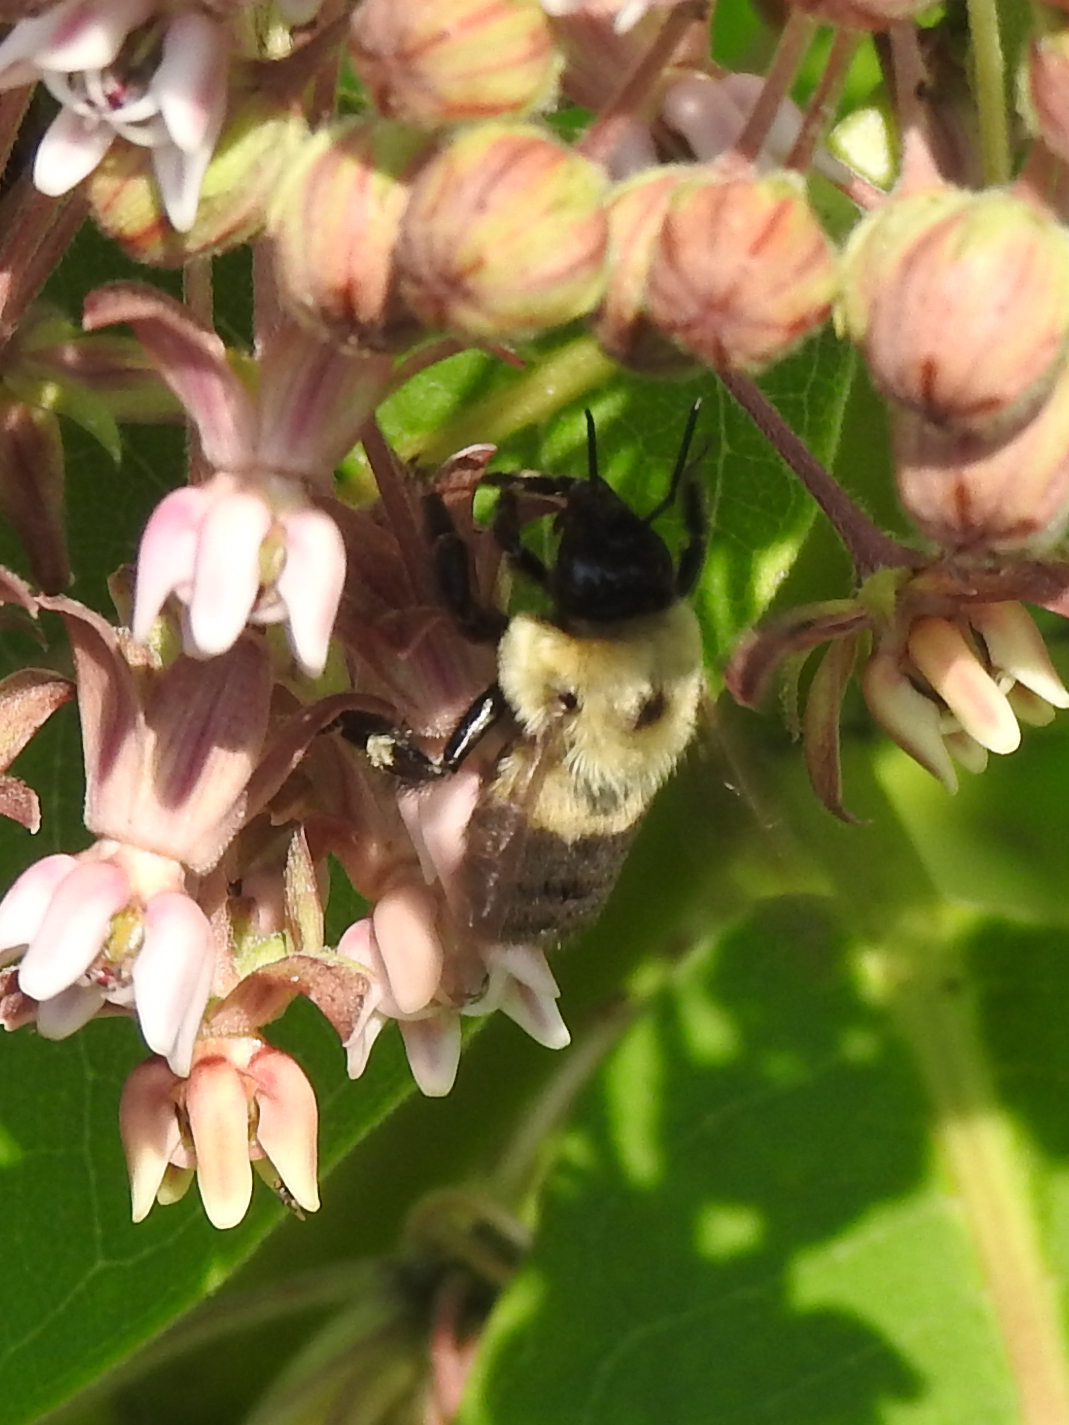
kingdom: Animalia
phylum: Arthropoda
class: Insecta
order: Hymenoptera
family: Apidae
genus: Bombus
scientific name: Bombus griseocollis
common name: Brown-belted bumble bee
